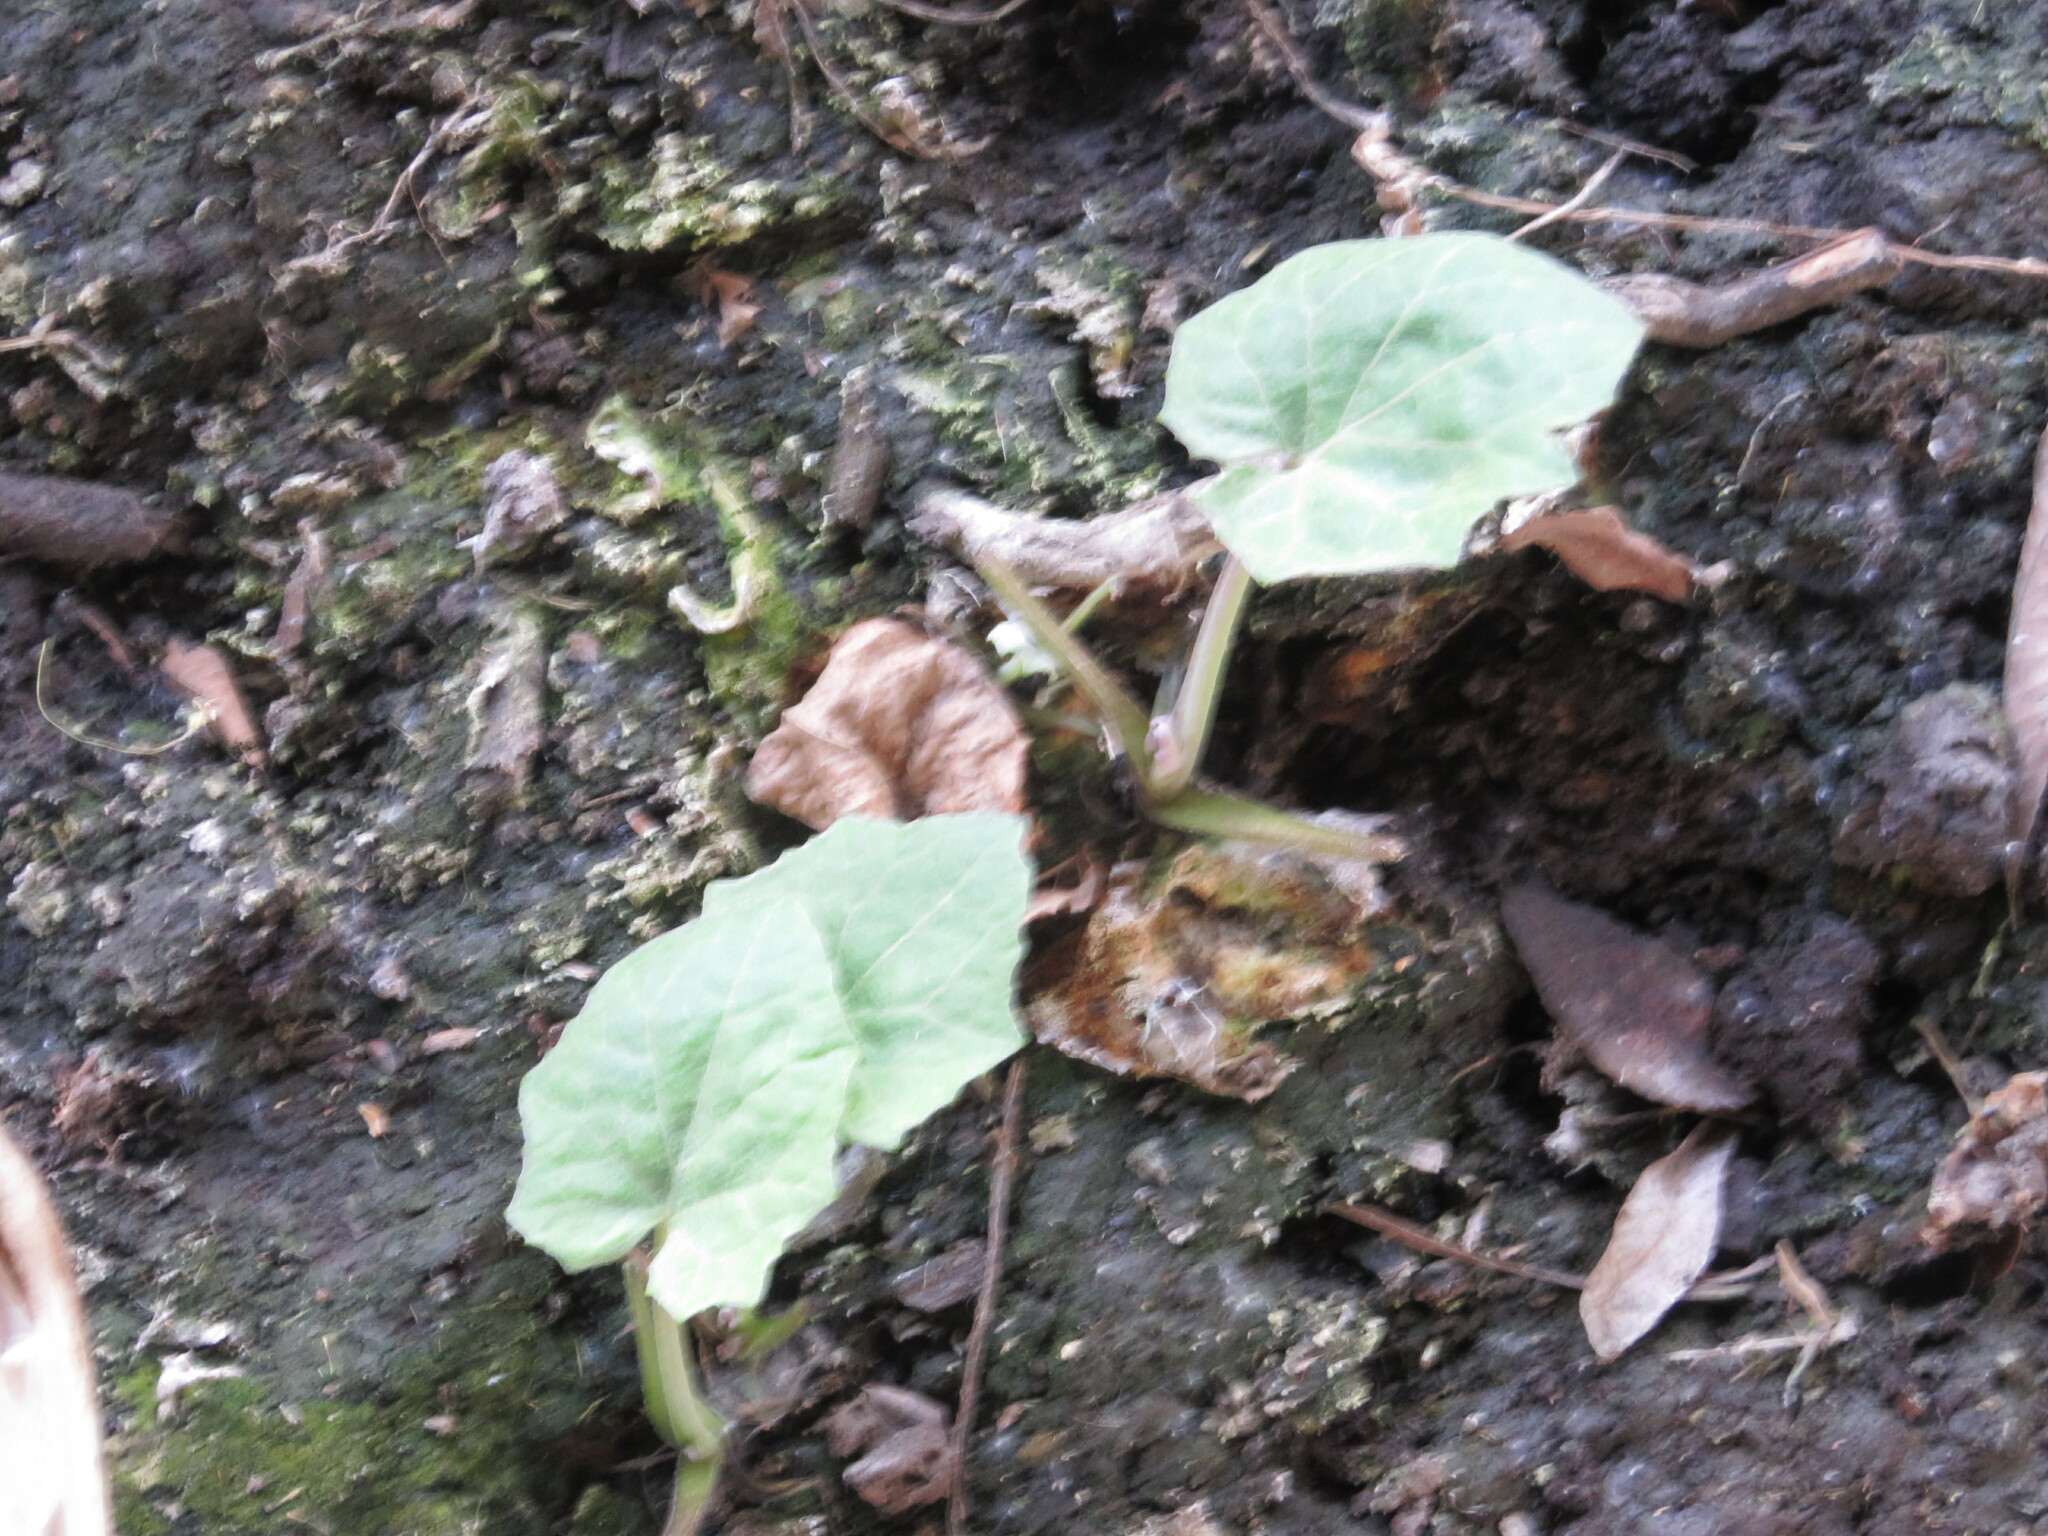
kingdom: Plantae
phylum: Tracheophyta
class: Magnoliopsida
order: Asterales
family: Asteraceae
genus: Tussilago
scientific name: Tussilago farfara
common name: Coltsfoot
